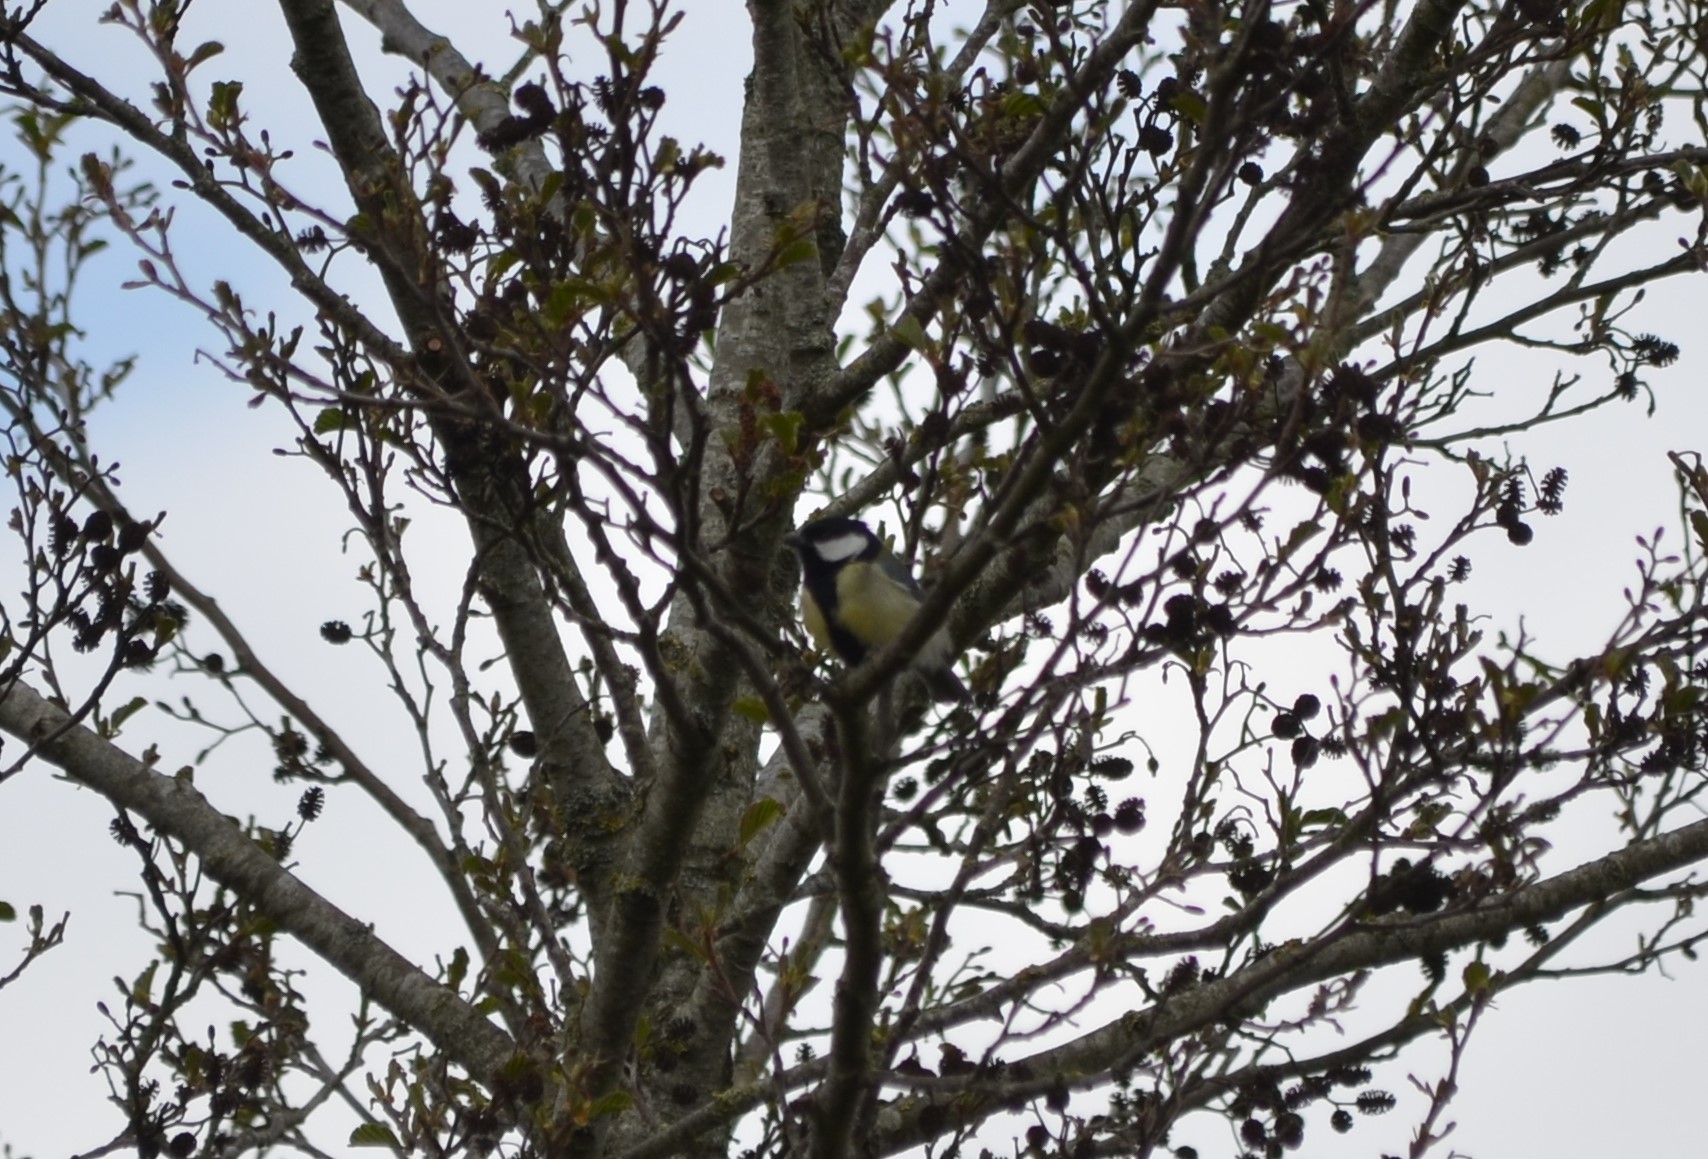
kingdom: Animalia
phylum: Chordata
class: Aves
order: Passeriformes
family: Paridae
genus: Parus
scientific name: Parus major
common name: Great tit
